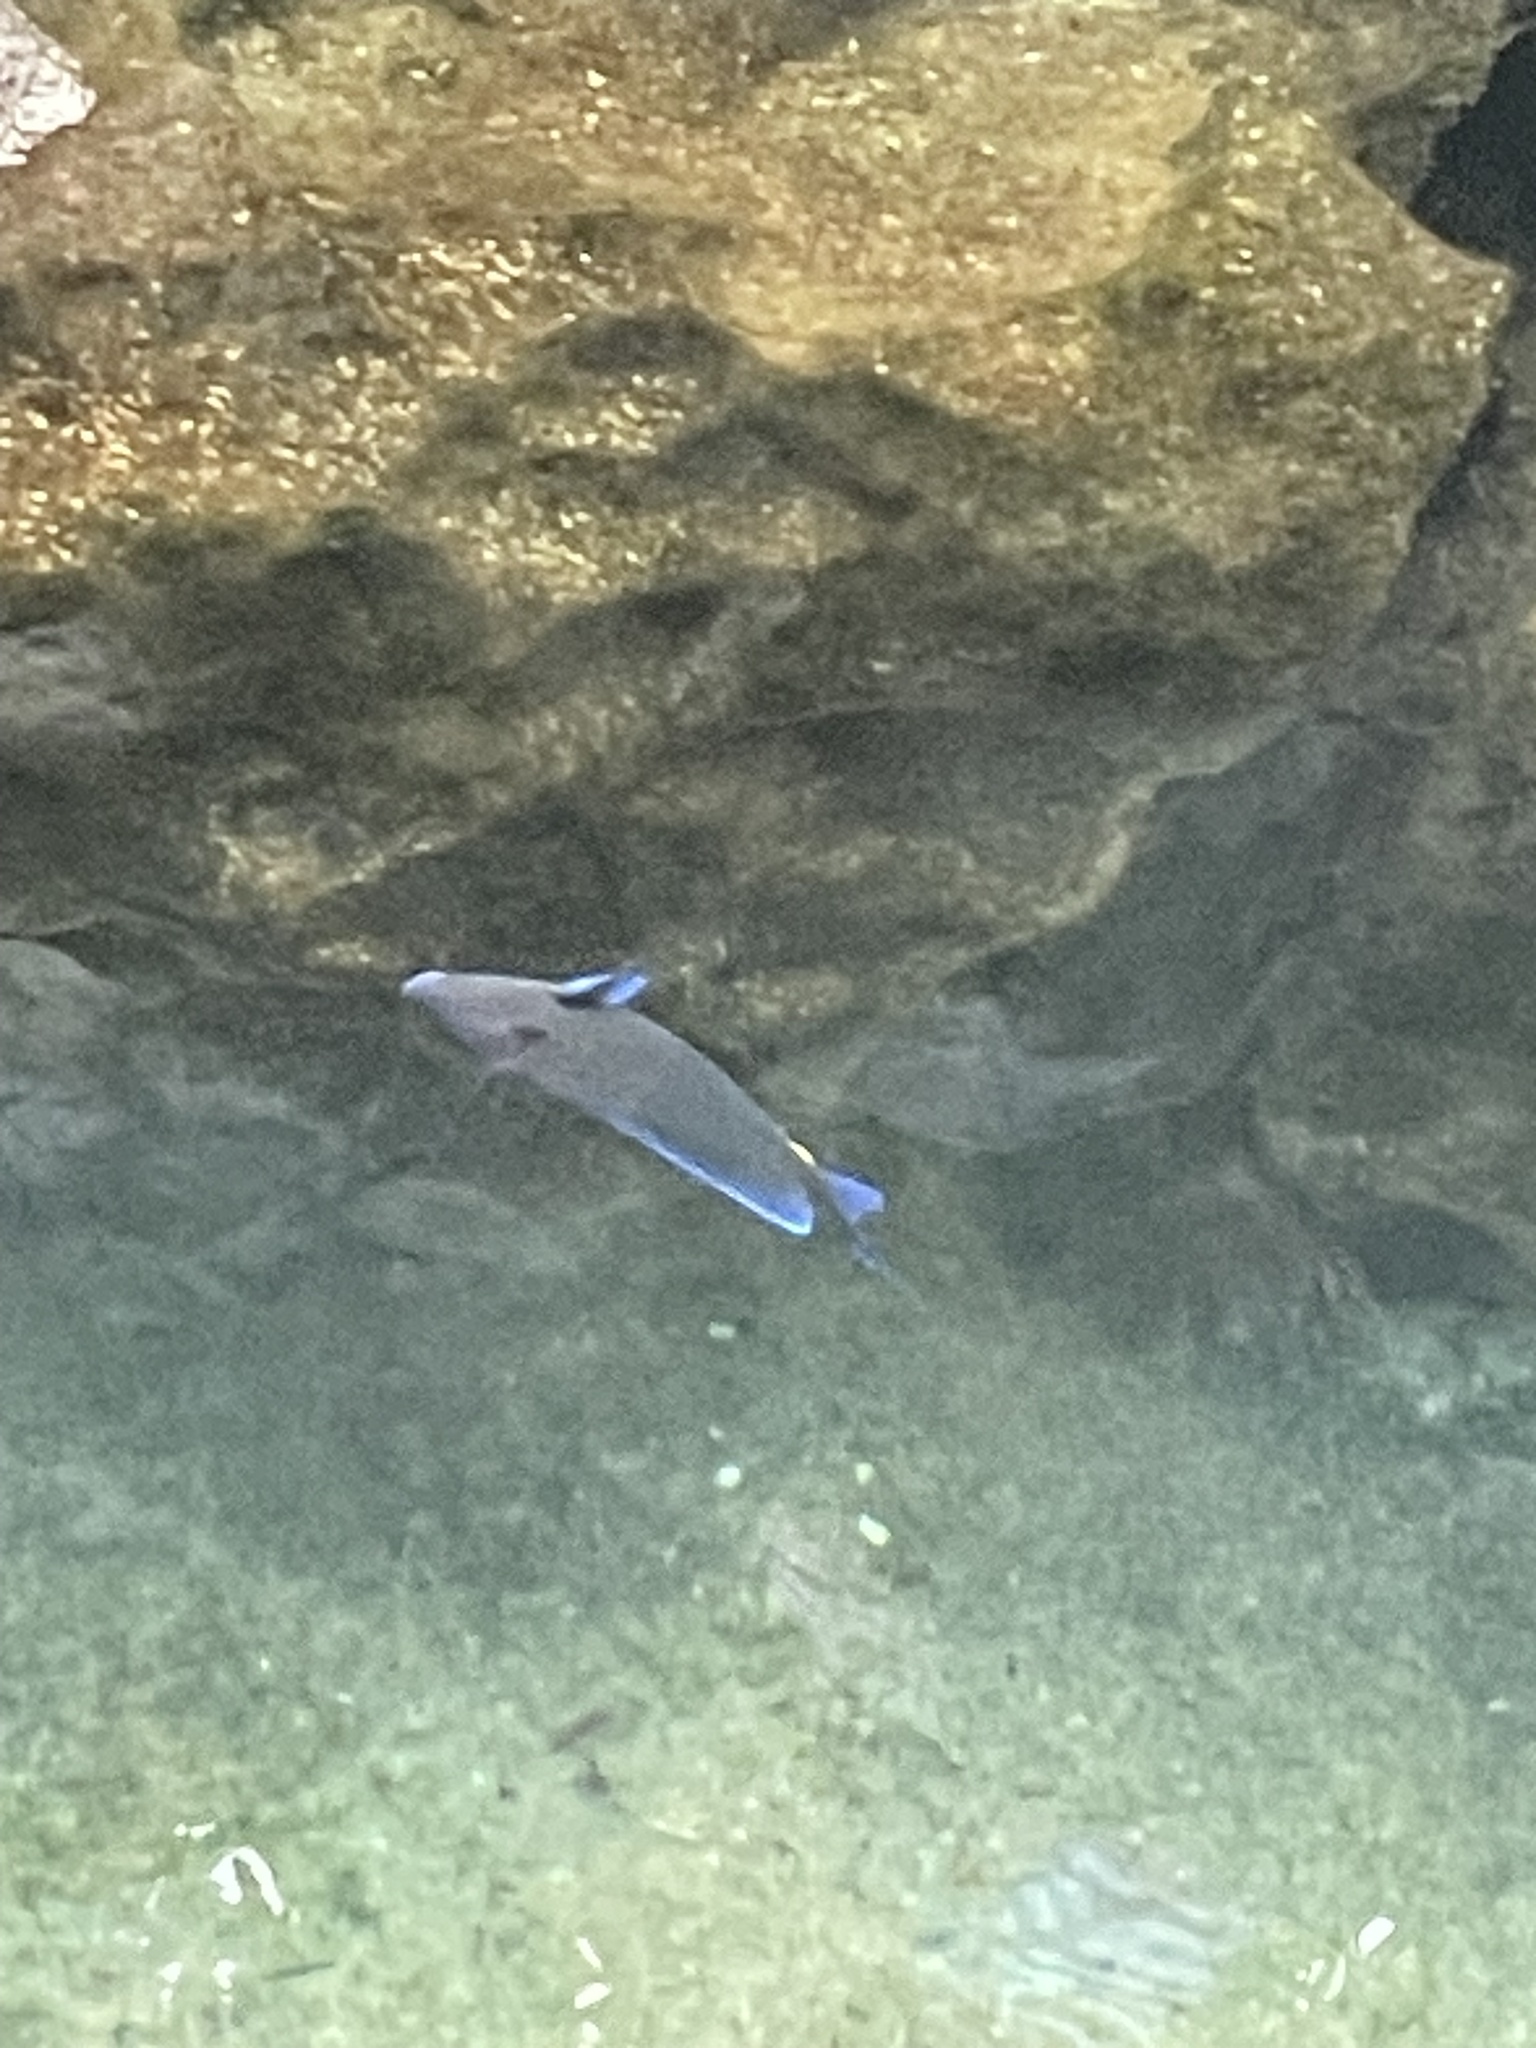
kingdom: Animalia
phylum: Chordata
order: Perciformes
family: Acanthuridae
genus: Acanthurus
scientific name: Acanthurus coeruleus
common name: Blue tang
